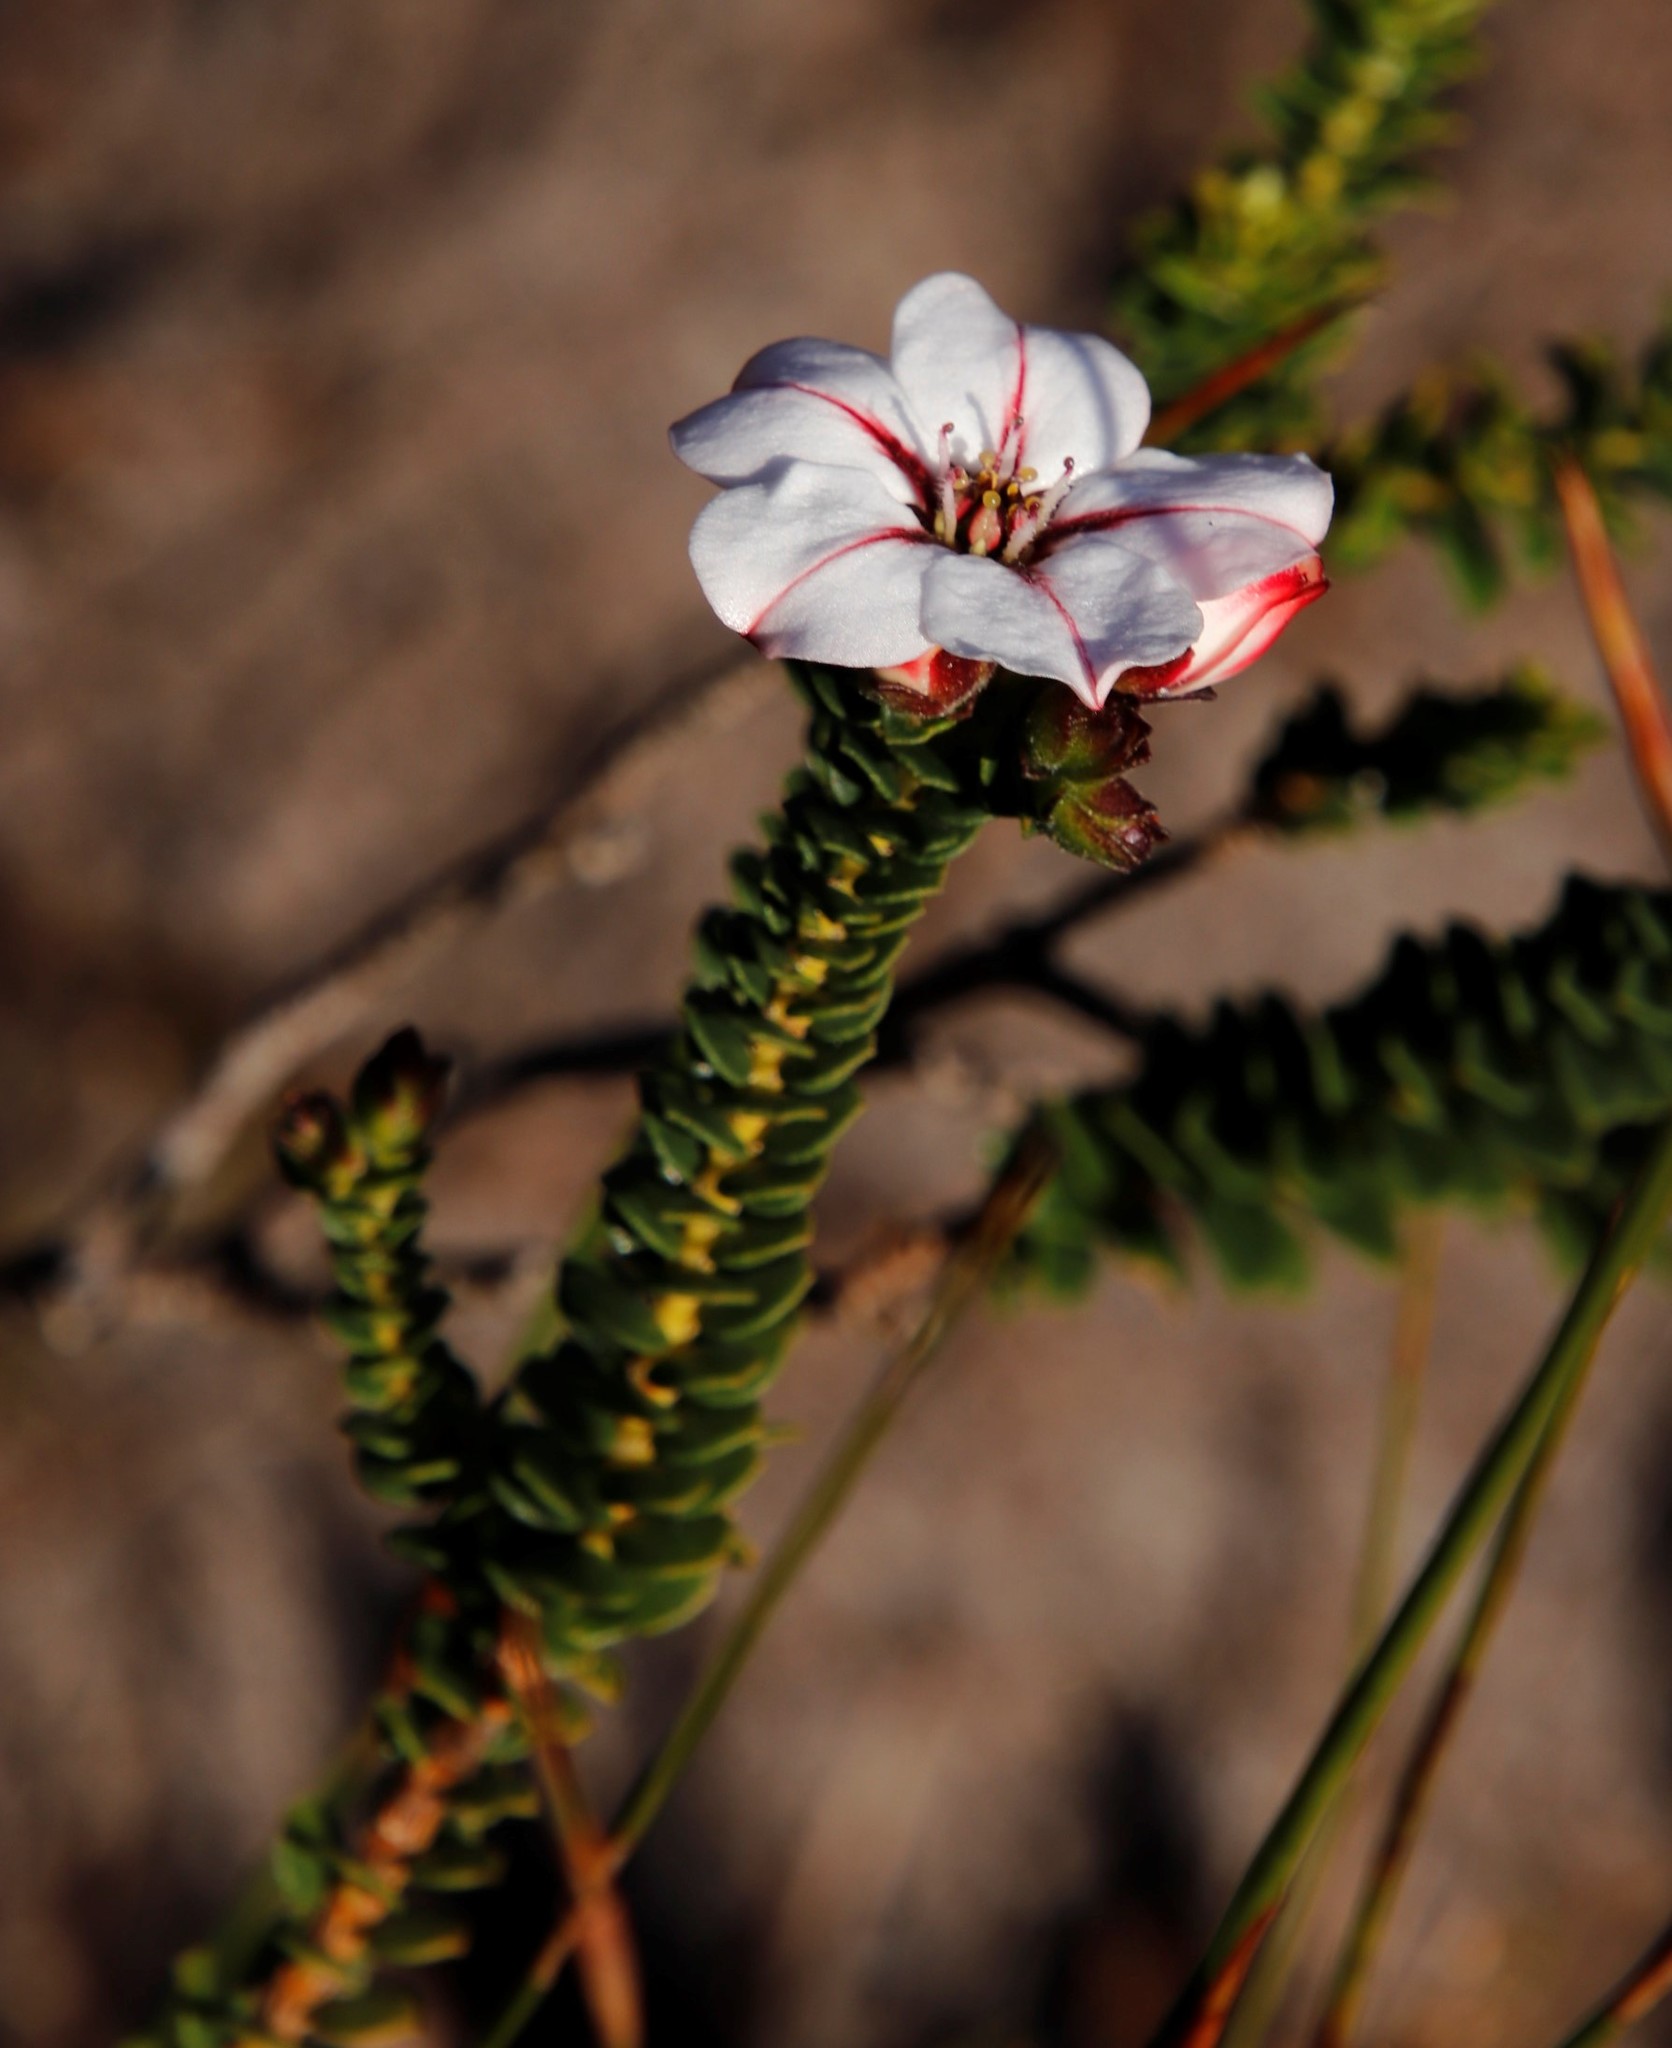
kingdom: Plantae
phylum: Tracheophyta
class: Magnoliopsida
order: Sapindales
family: Rutaceae
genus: Adenandra
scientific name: Adenandra villosa
